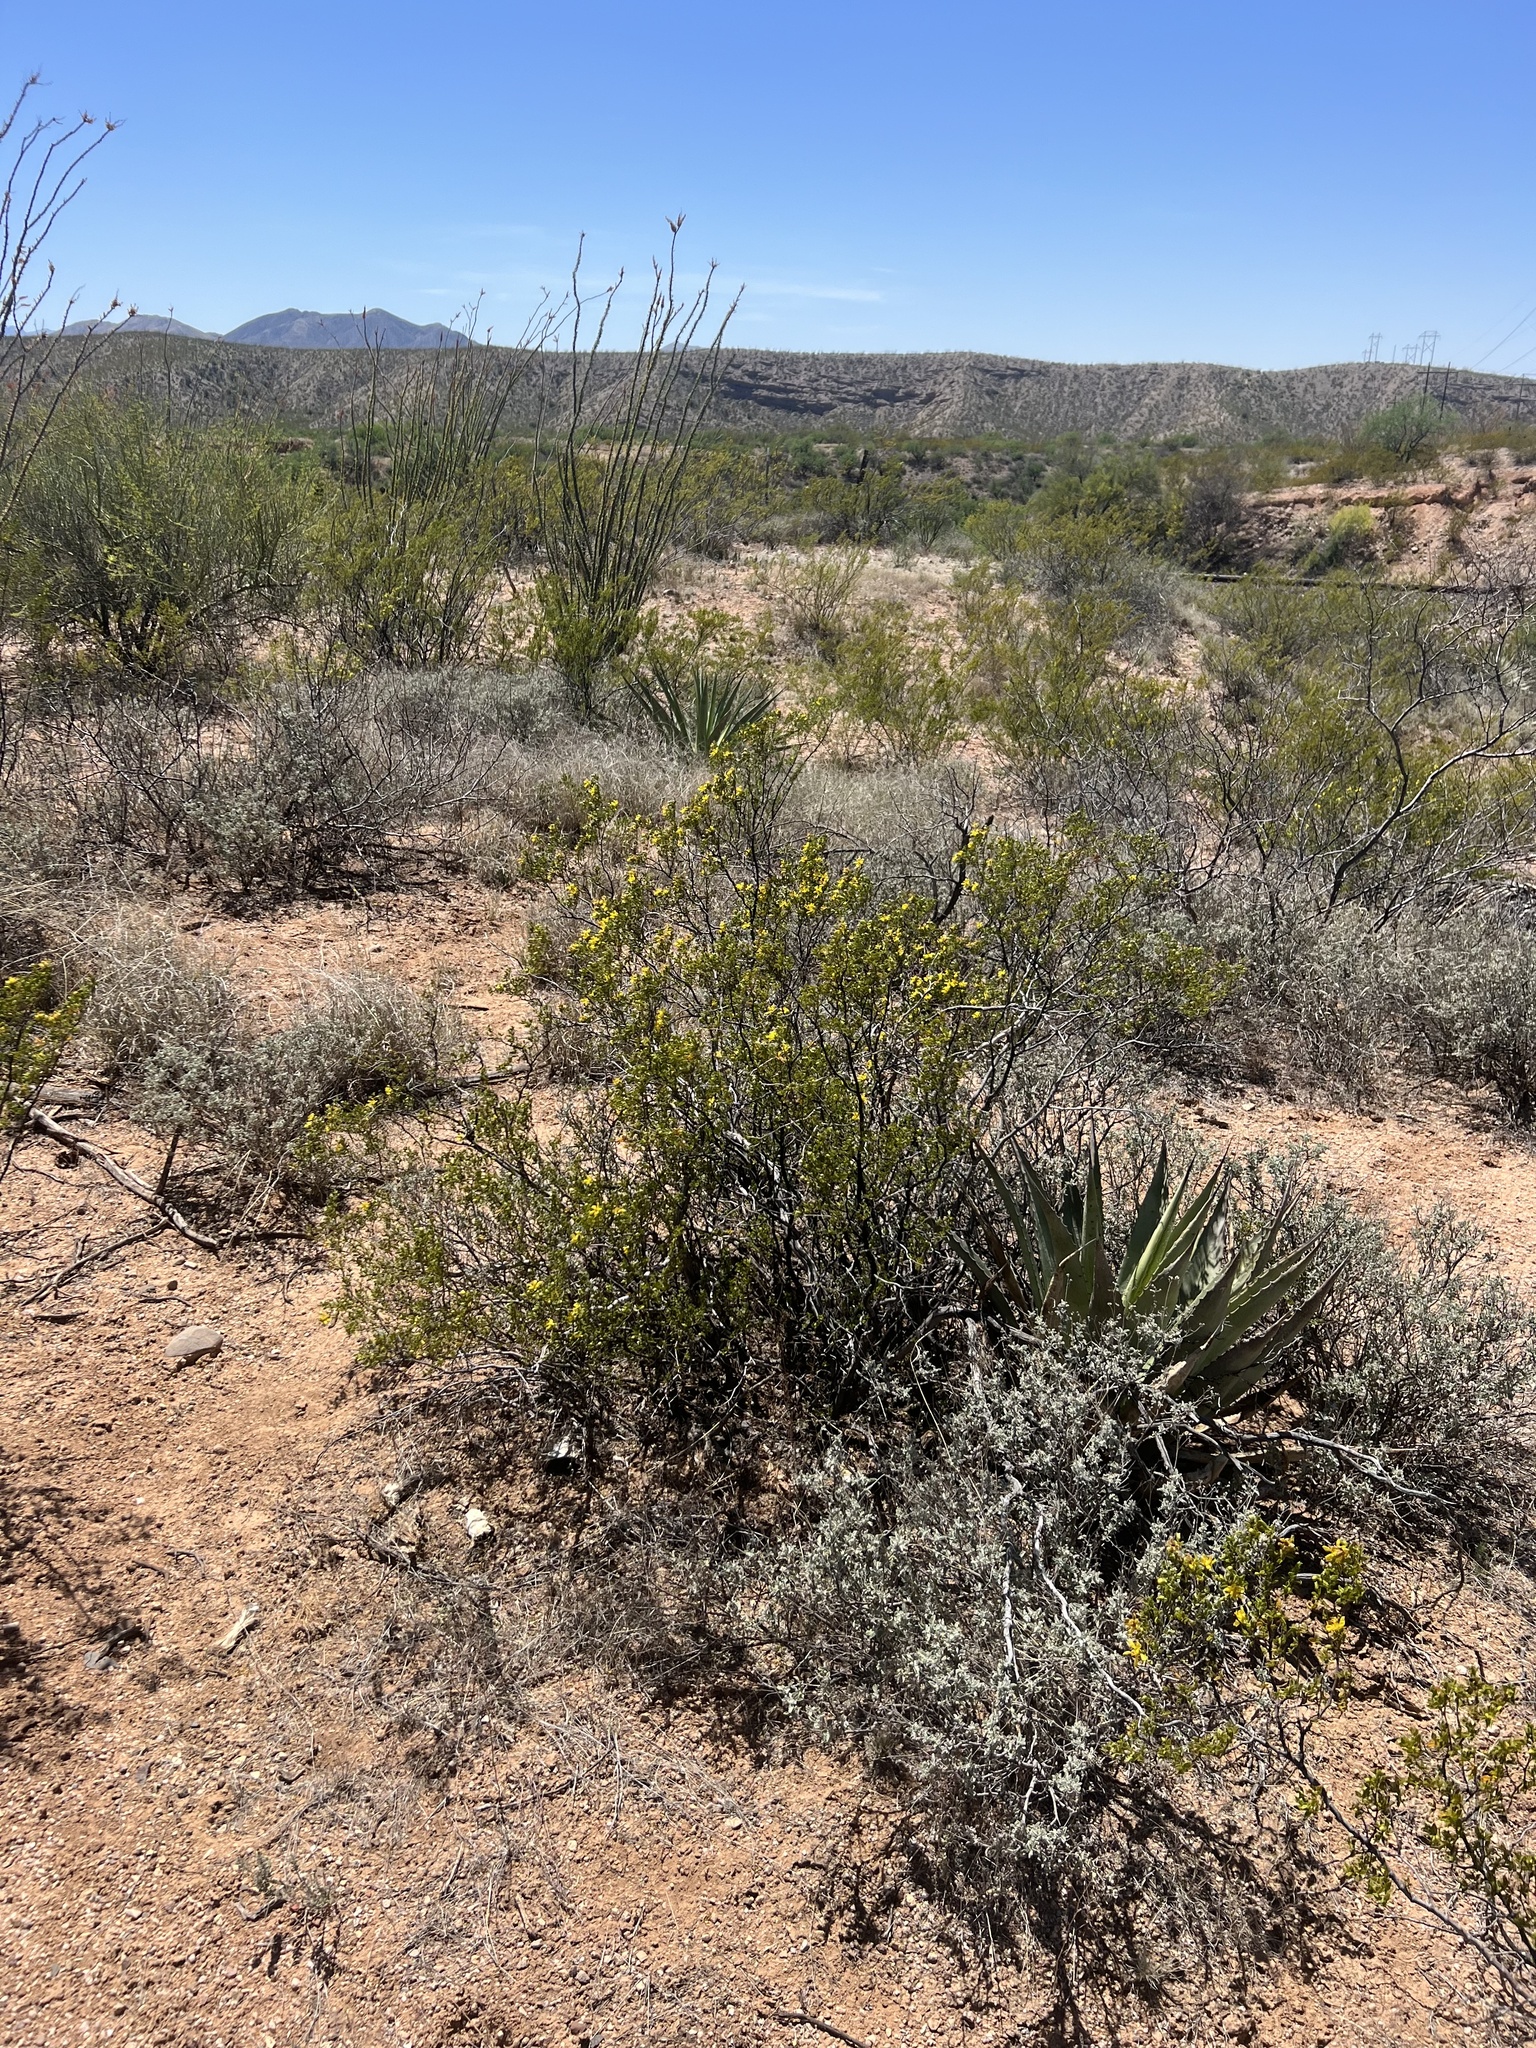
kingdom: Plantae
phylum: Tracheophyta
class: Magnoliopsida
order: Zygophyllales
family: Zygophyllaceae
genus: Larrea
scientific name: Larrea tridentata
